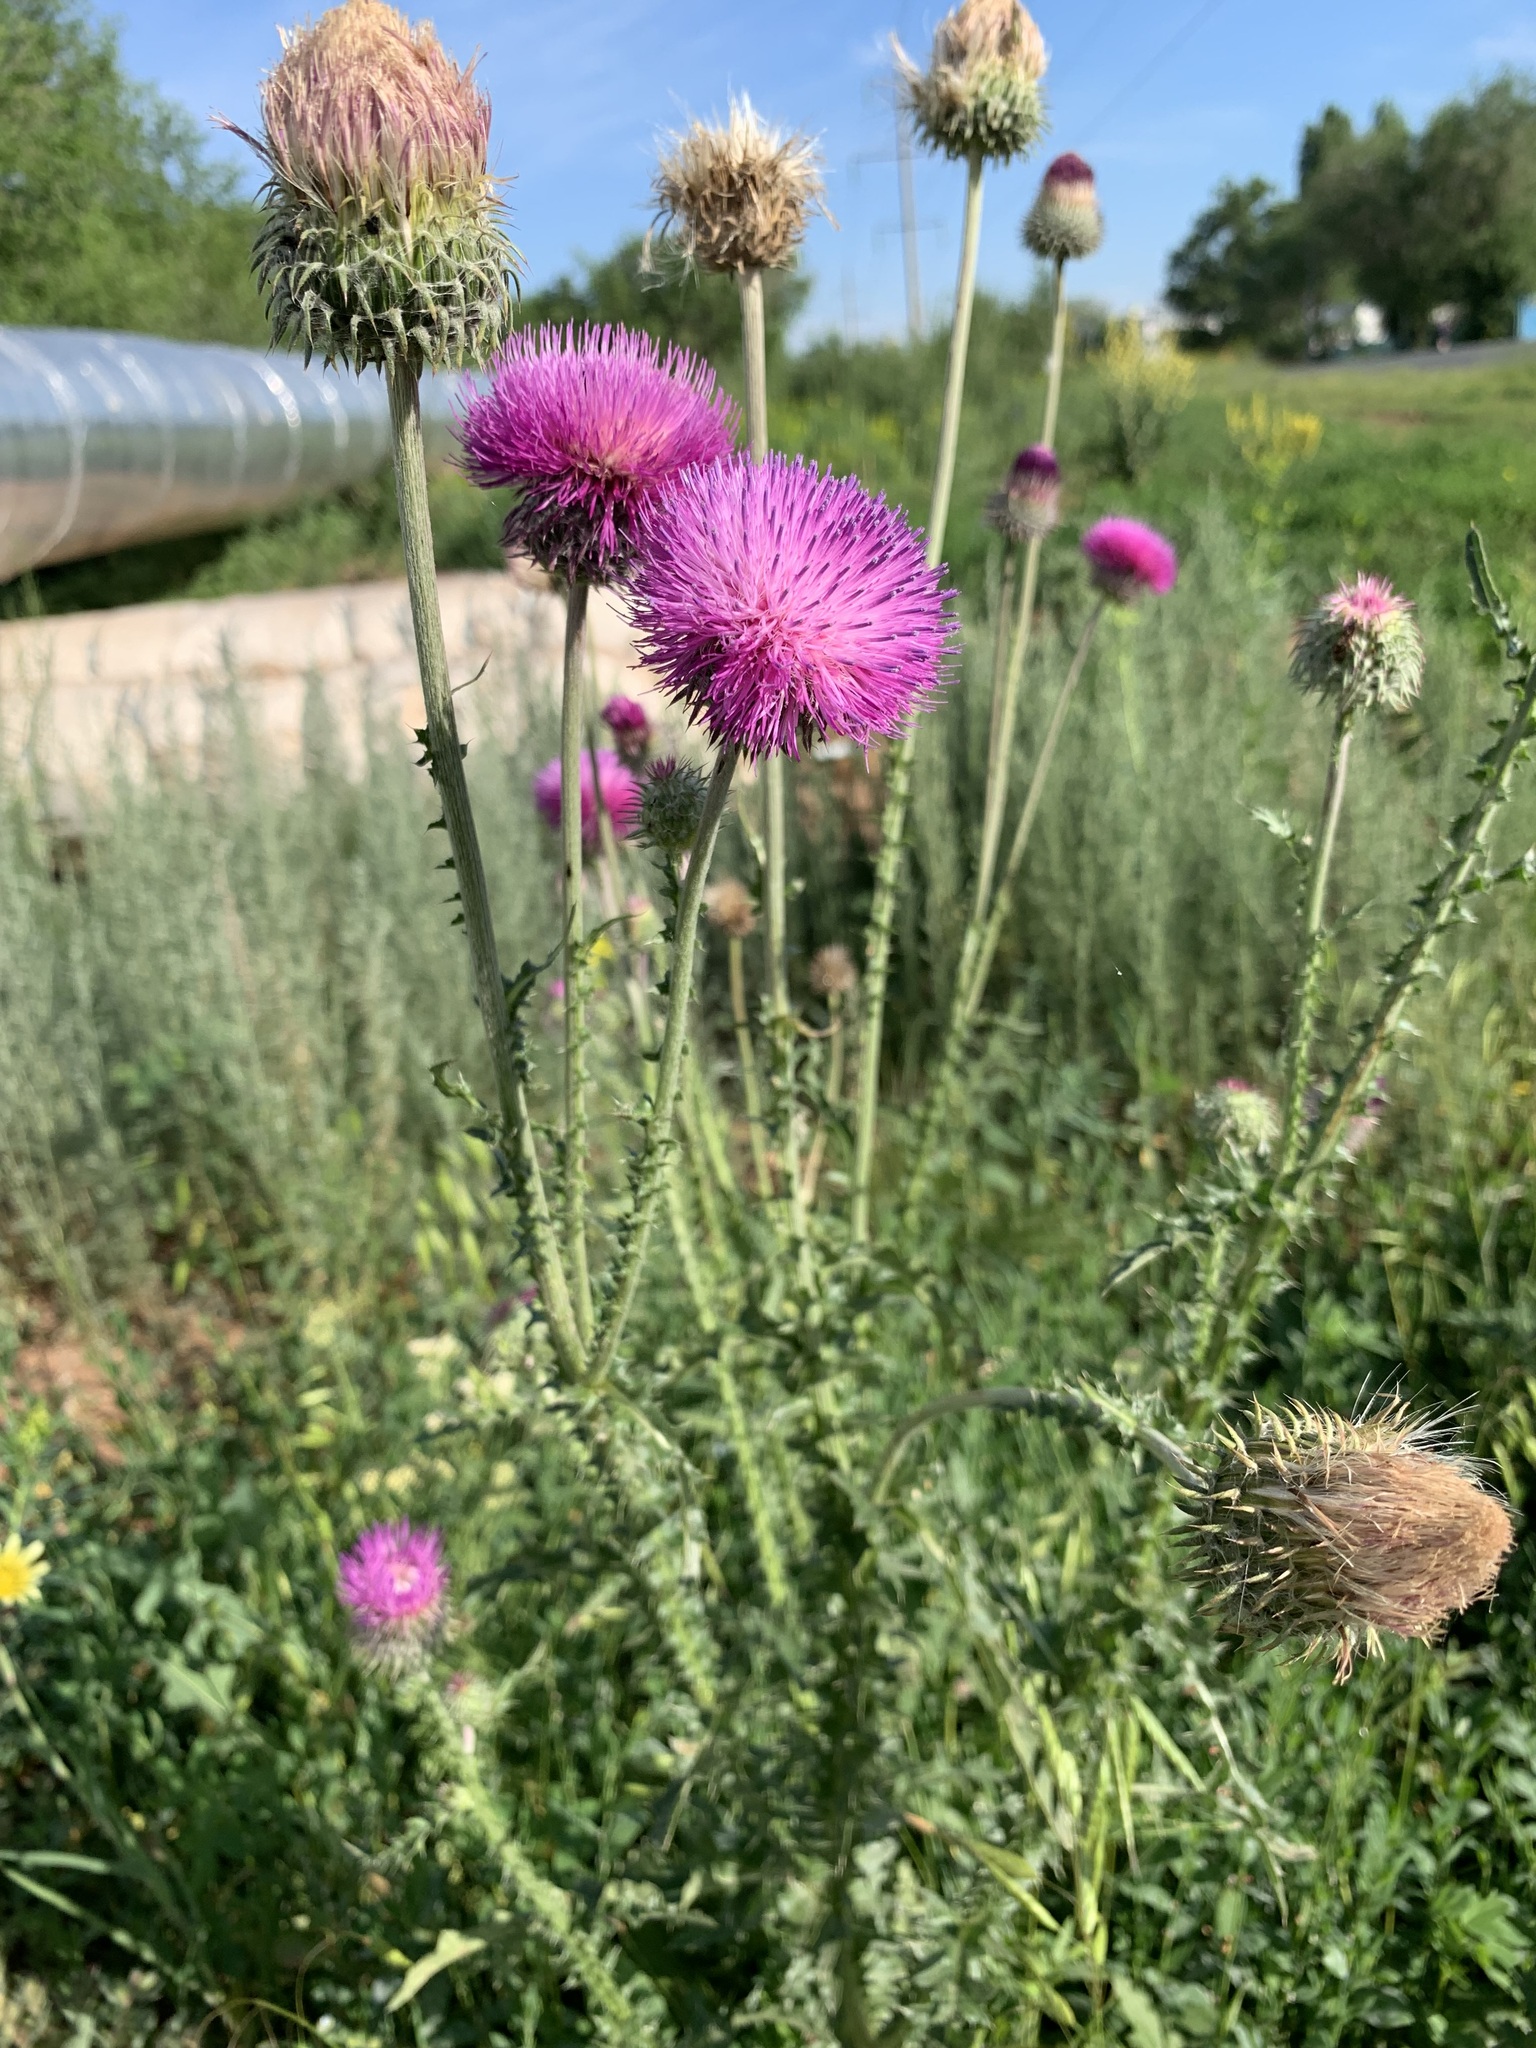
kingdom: Plantae
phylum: Tracheophyta
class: Magnoliopsida
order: Asterales
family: Asteraceae
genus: Carduus
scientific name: Carduus uncinatus
